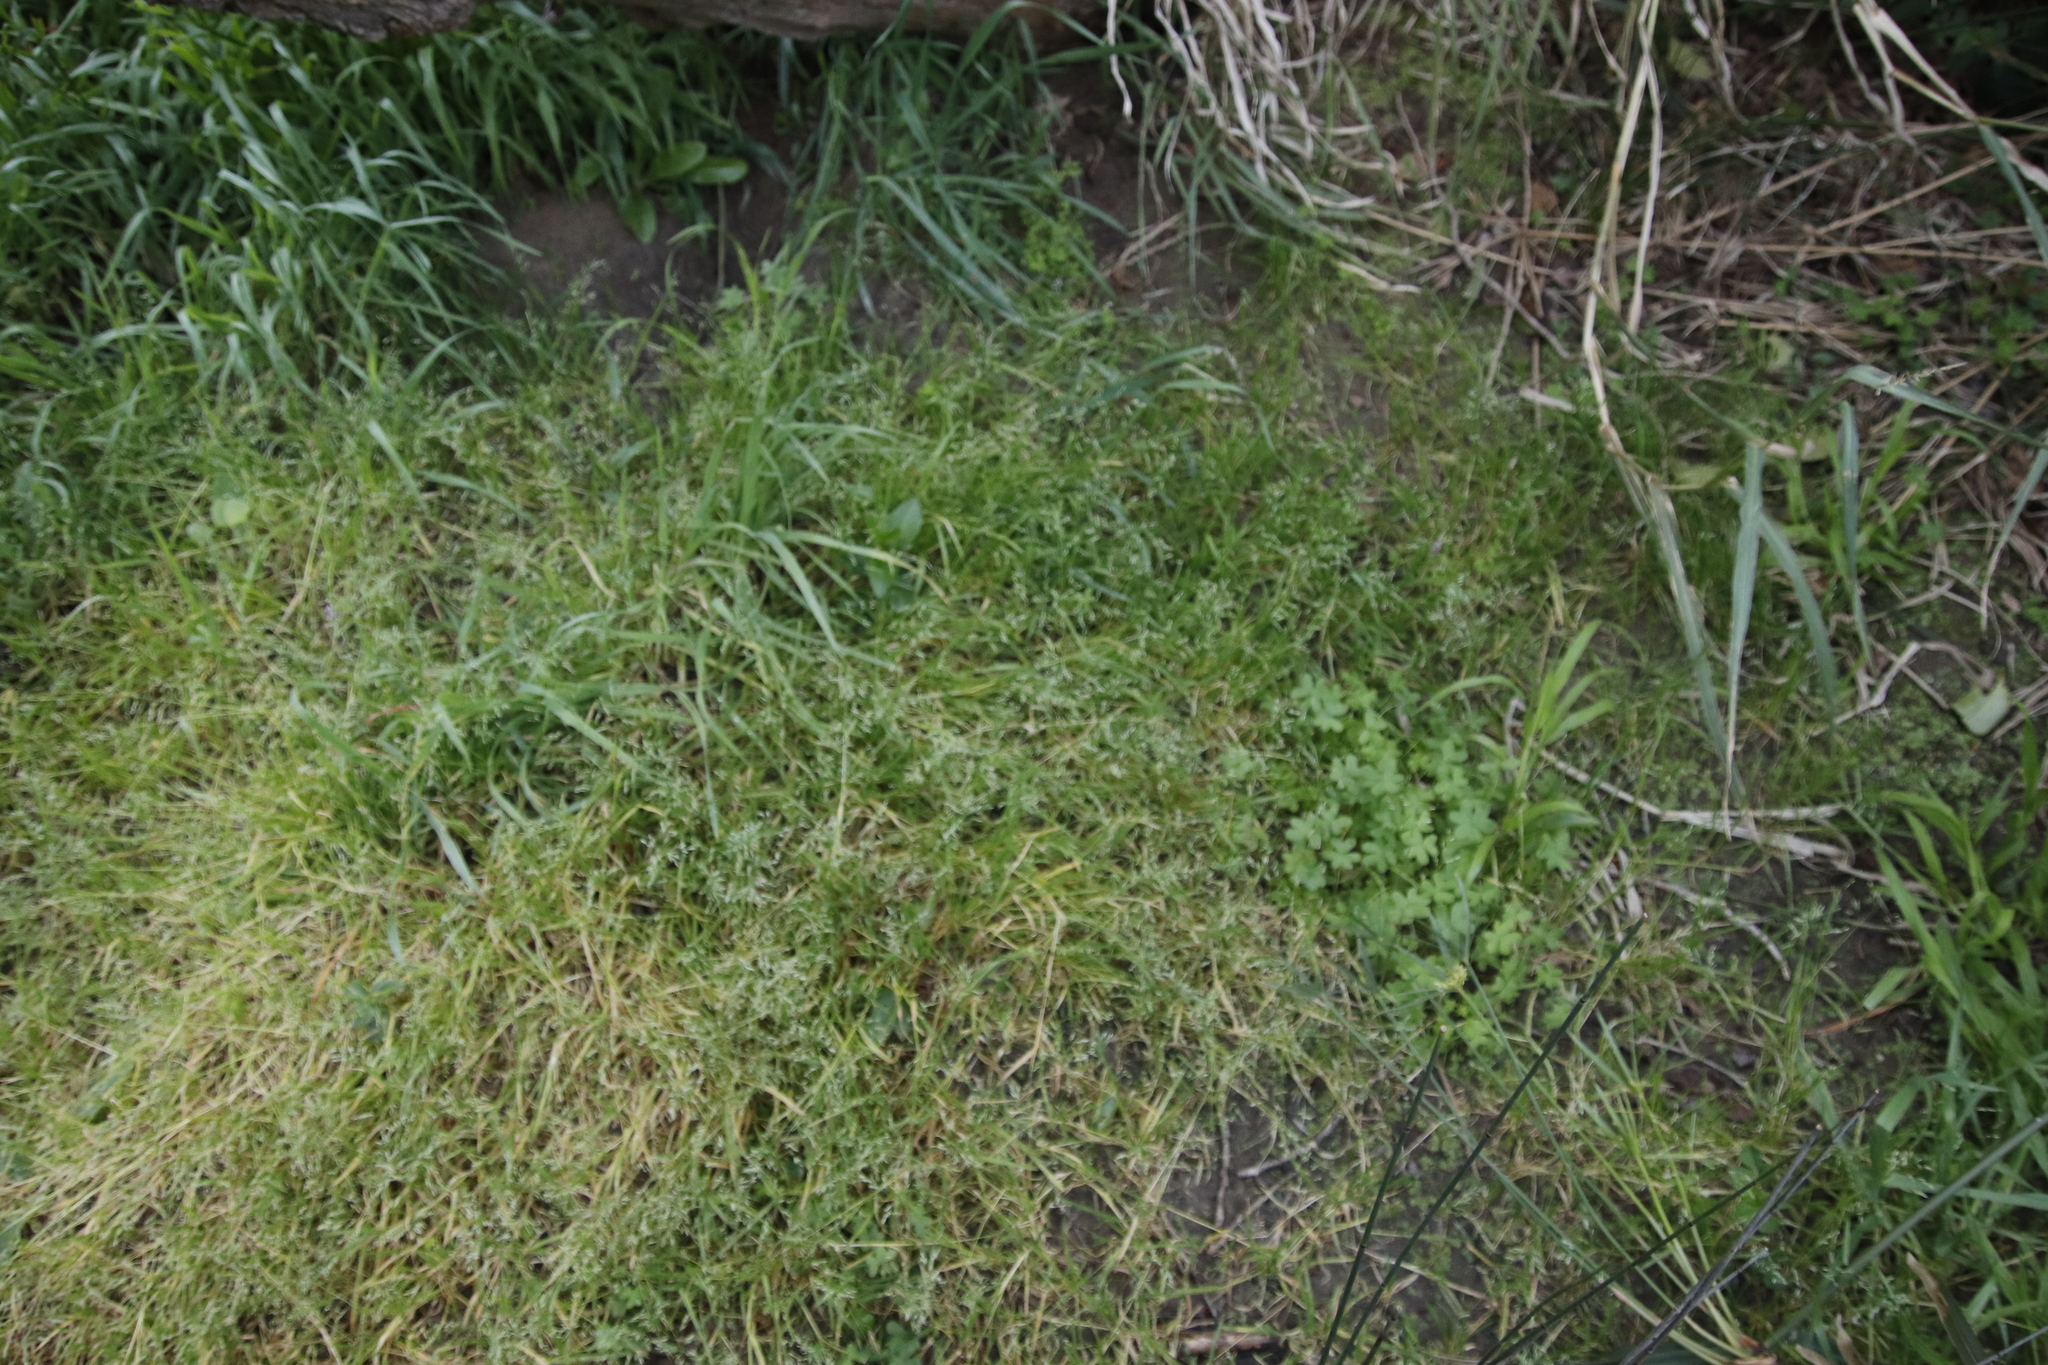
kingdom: Plantae
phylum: Tracheophyta
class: Liliopsida
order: Poales
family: Poaceae
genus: Poa
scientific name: Poa annua
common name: Annual bluegrass
